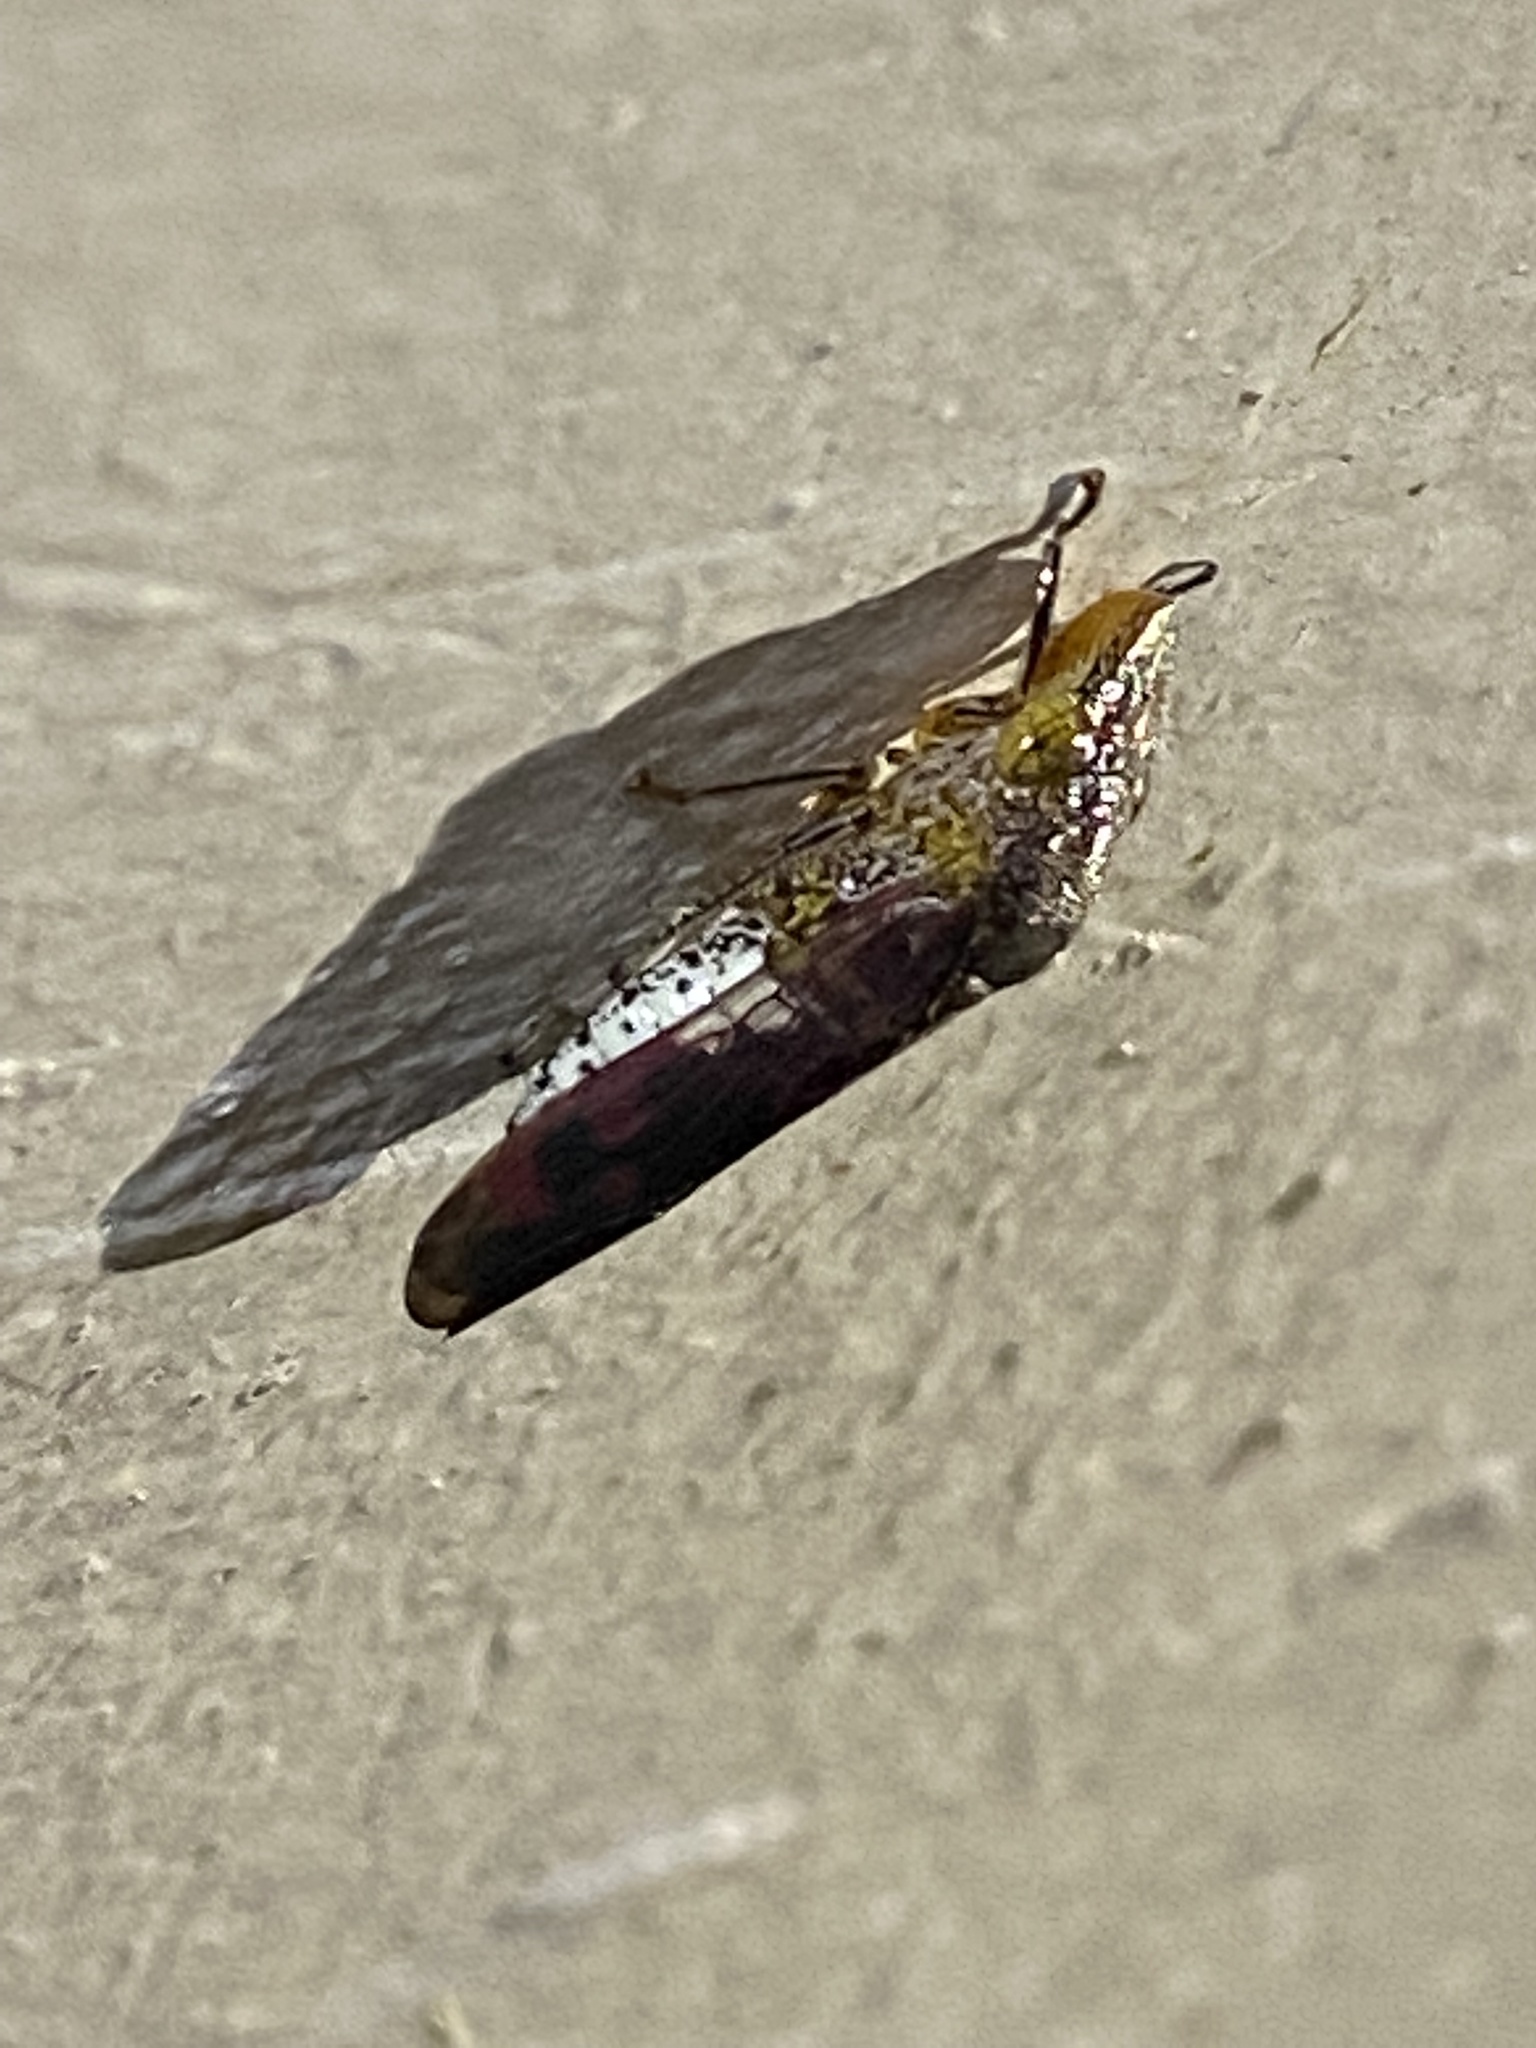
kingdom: Animalia
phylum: Arthropoda
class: Insecta
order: Hemiptera
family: Cicadellidae
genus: Homalodisca
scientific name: Homalodisca vitripennis
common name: Glassy-winged sharpshooter
